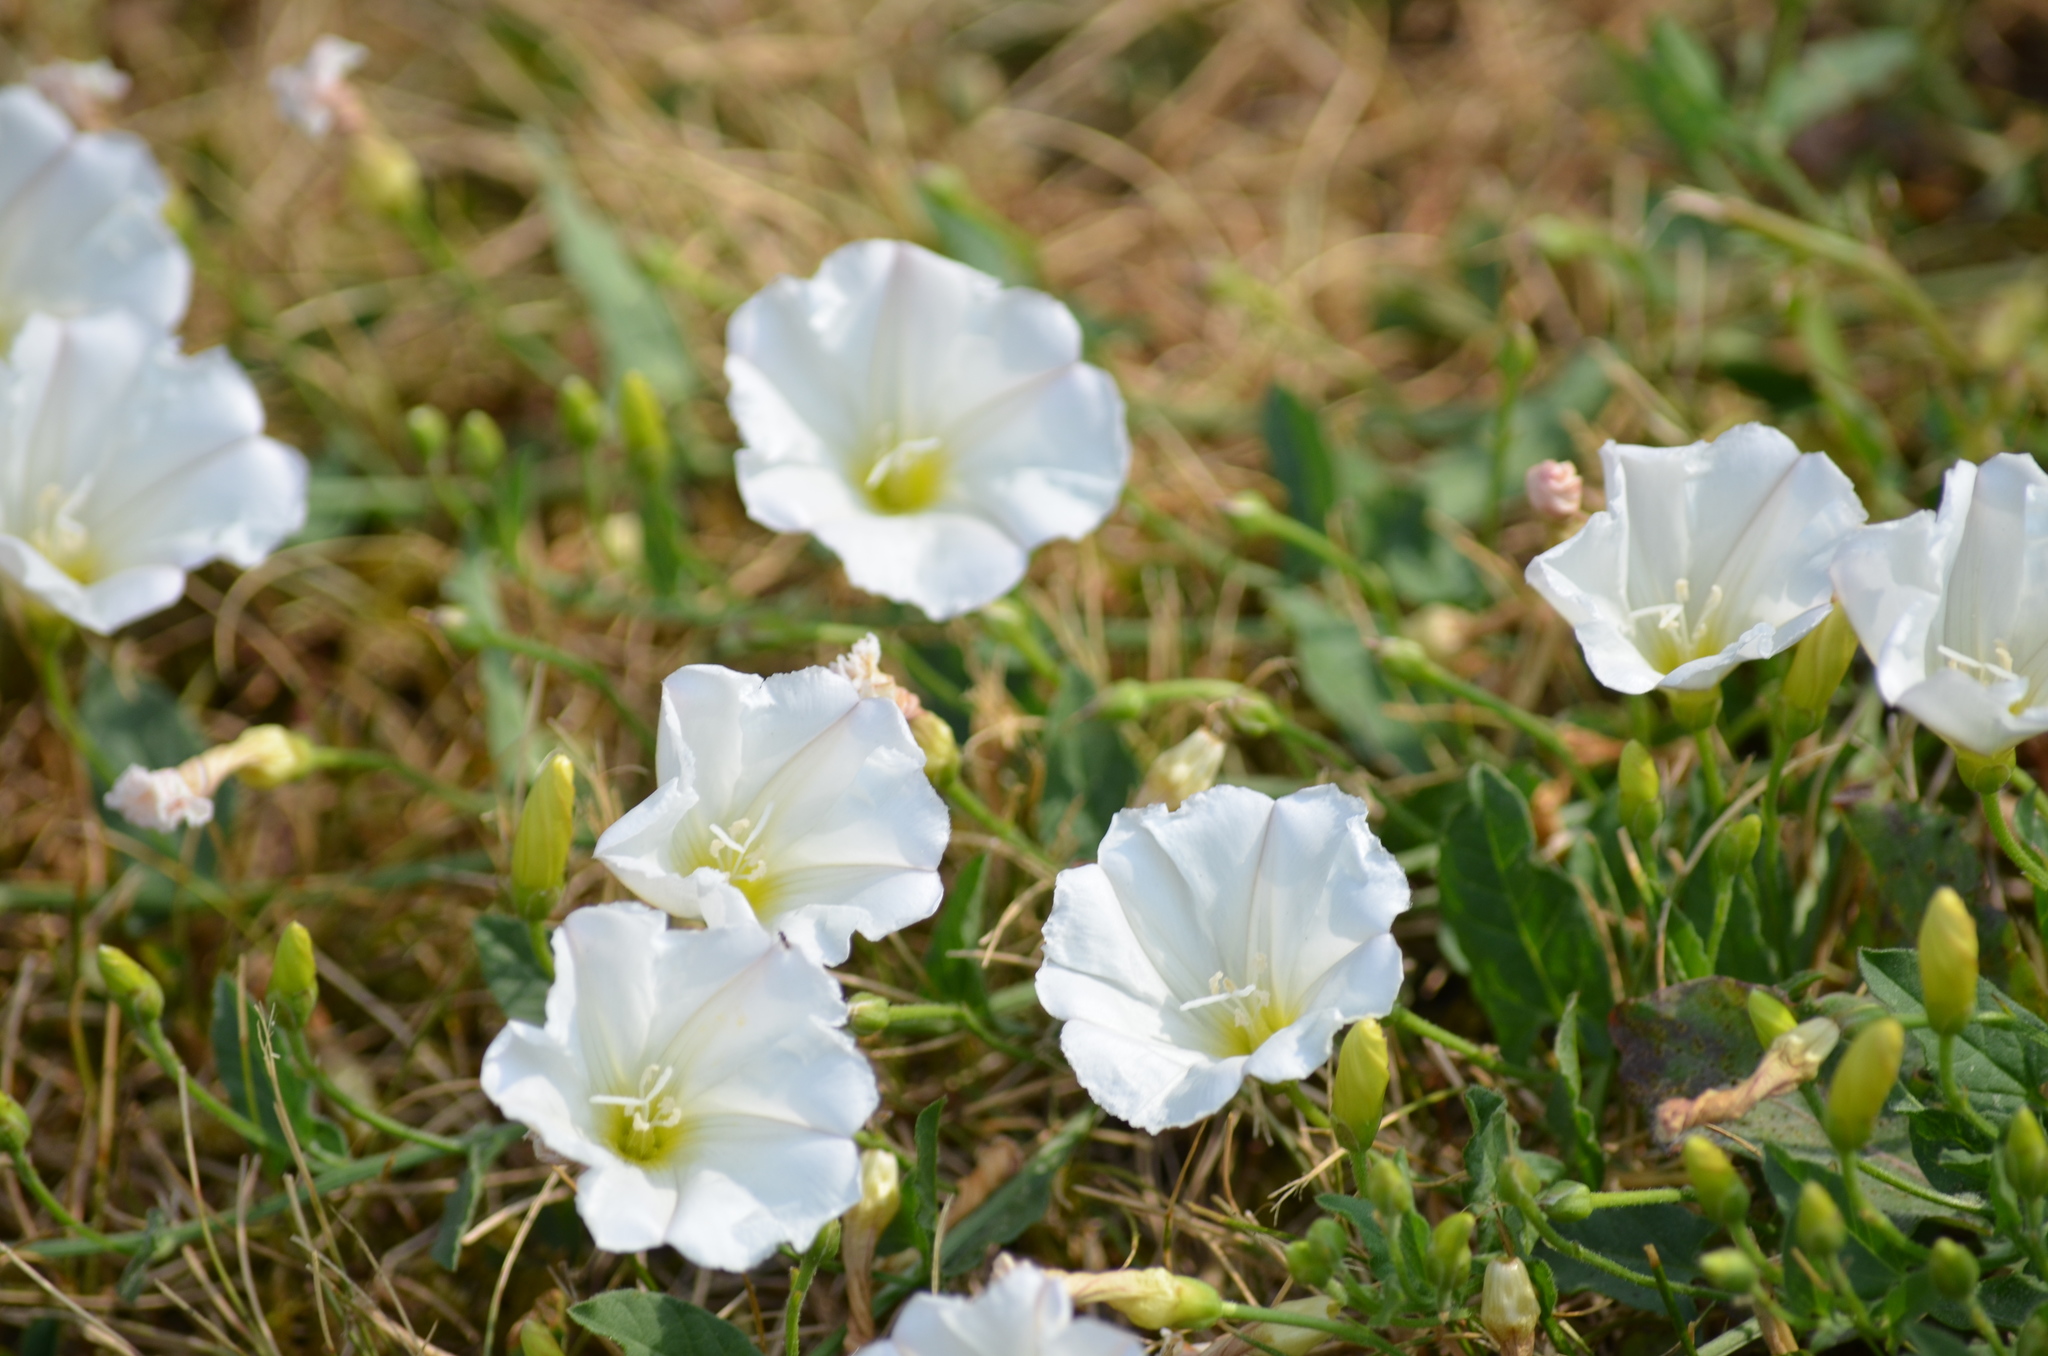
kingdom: Plantae
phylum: Tracheophyta
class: Magnoliopsida
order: Solanales
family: Convolvulaceae
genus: Convolvulus
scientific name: Convolvulus arvensis
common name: Field bindweed
